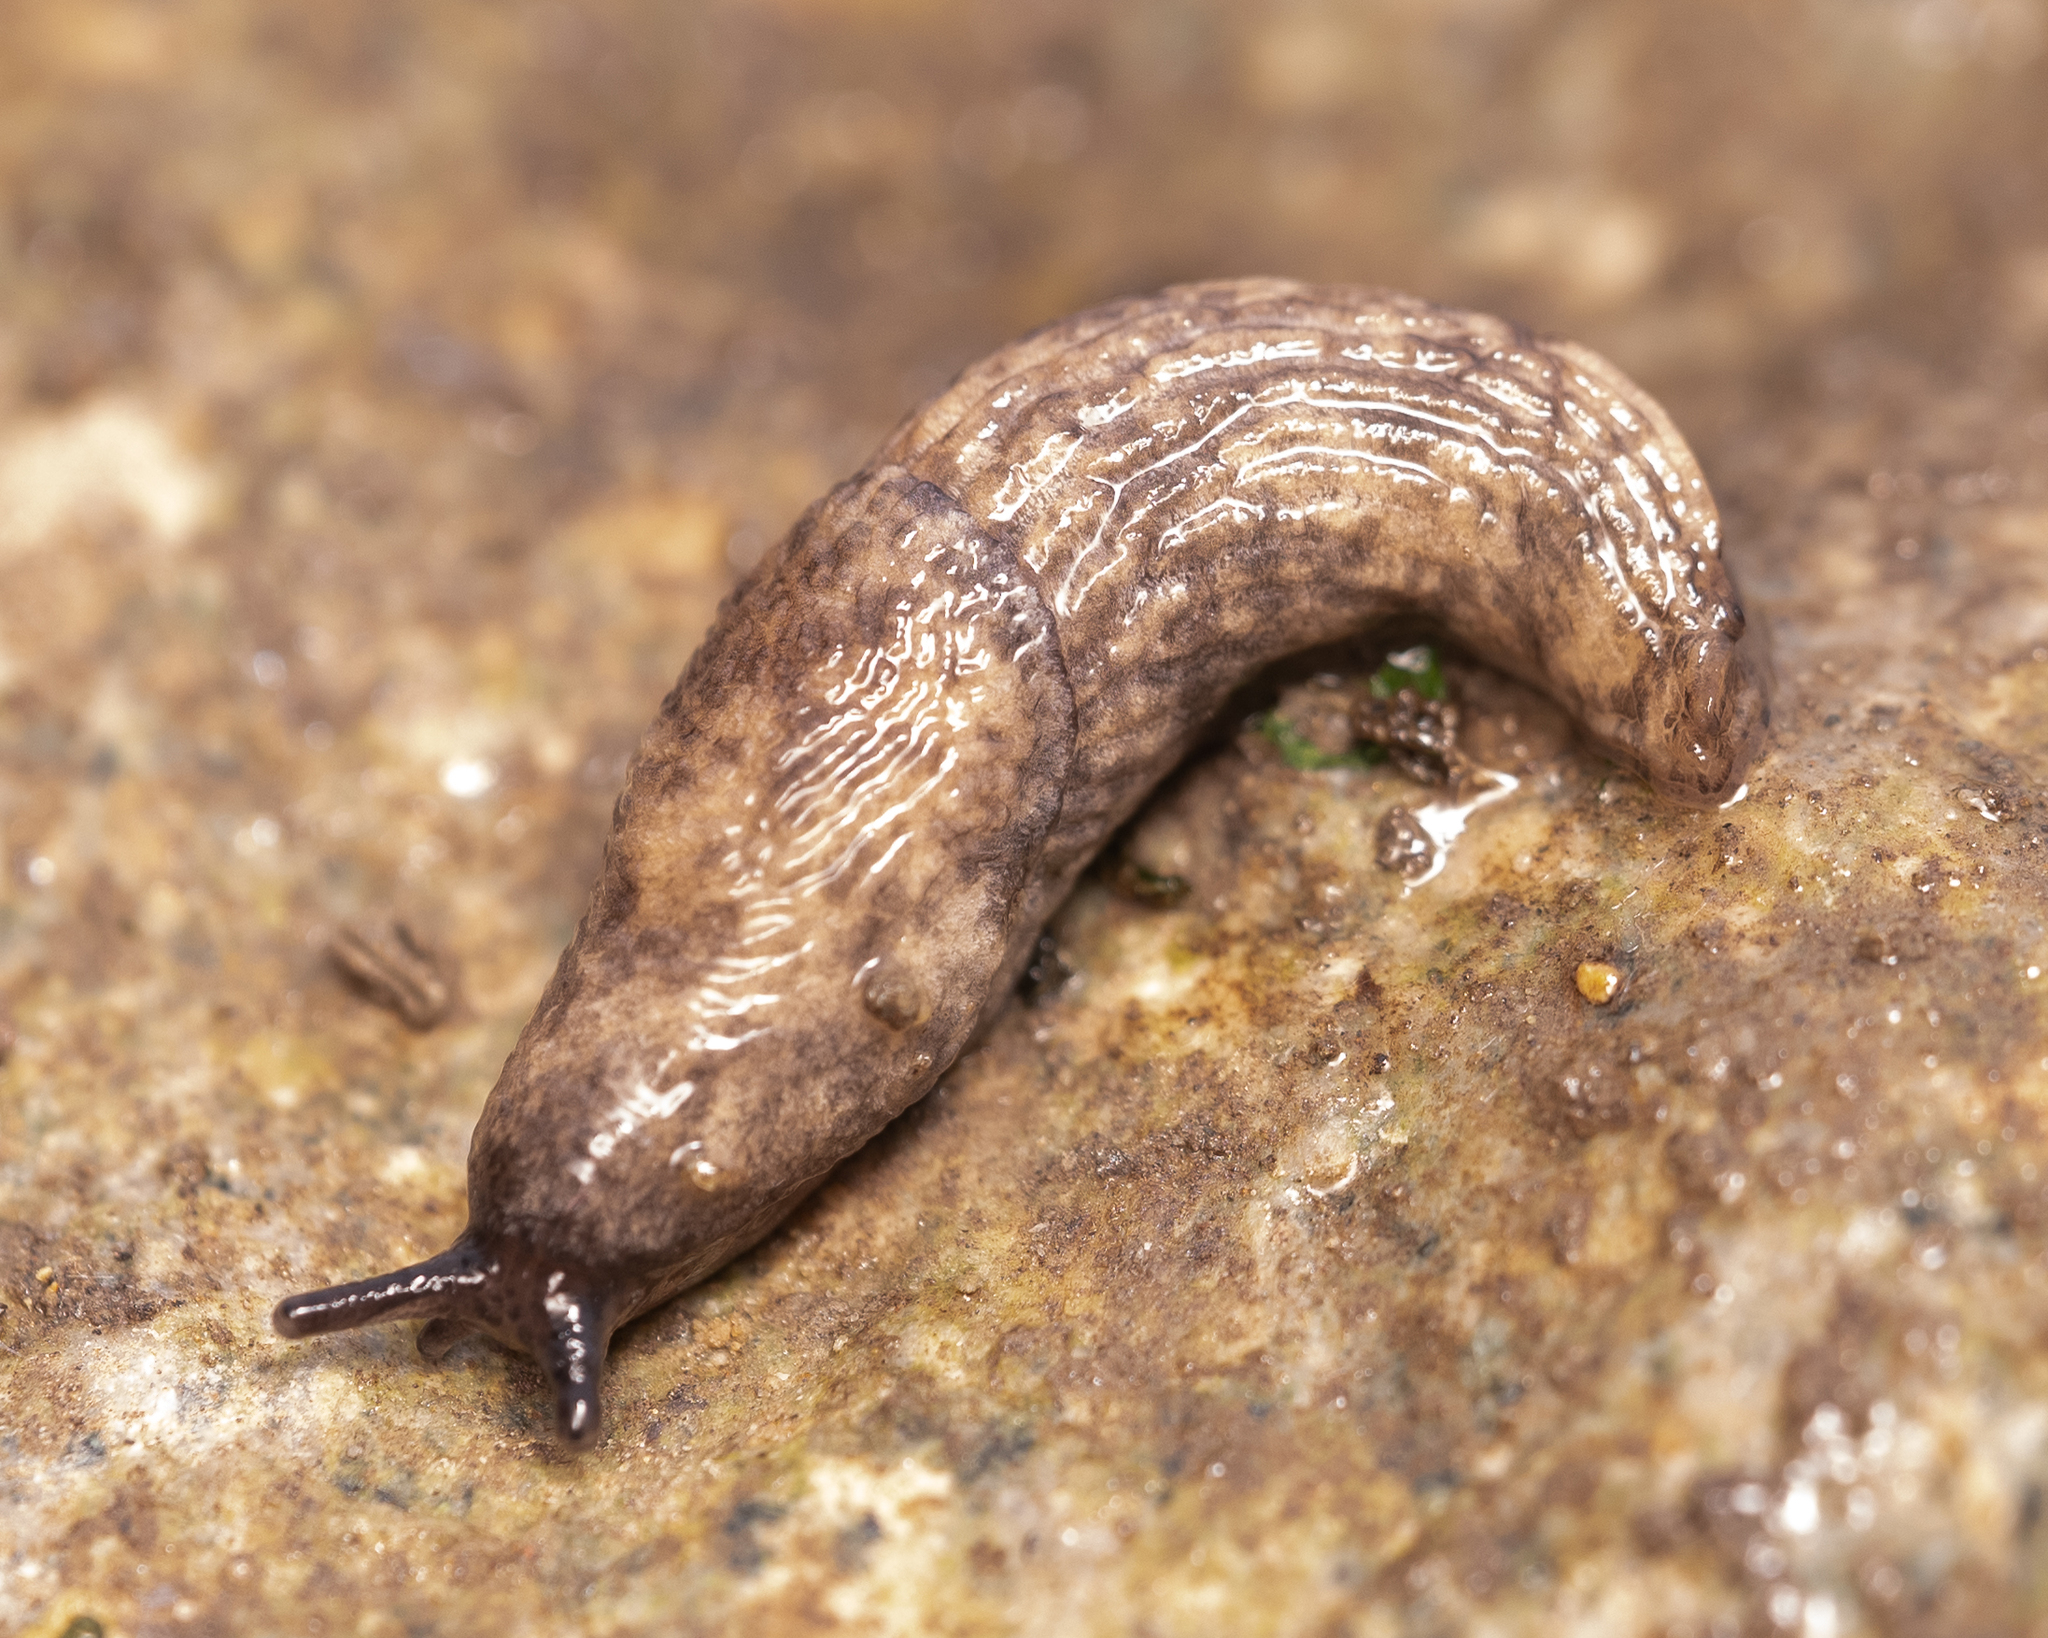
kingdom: Animalia
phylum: Mollusca
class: Gastropoda
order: Stylommatophora
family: Agriolimacidae
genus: Deroceras
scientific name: Deroceras reticulatum
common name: Gray field slug
